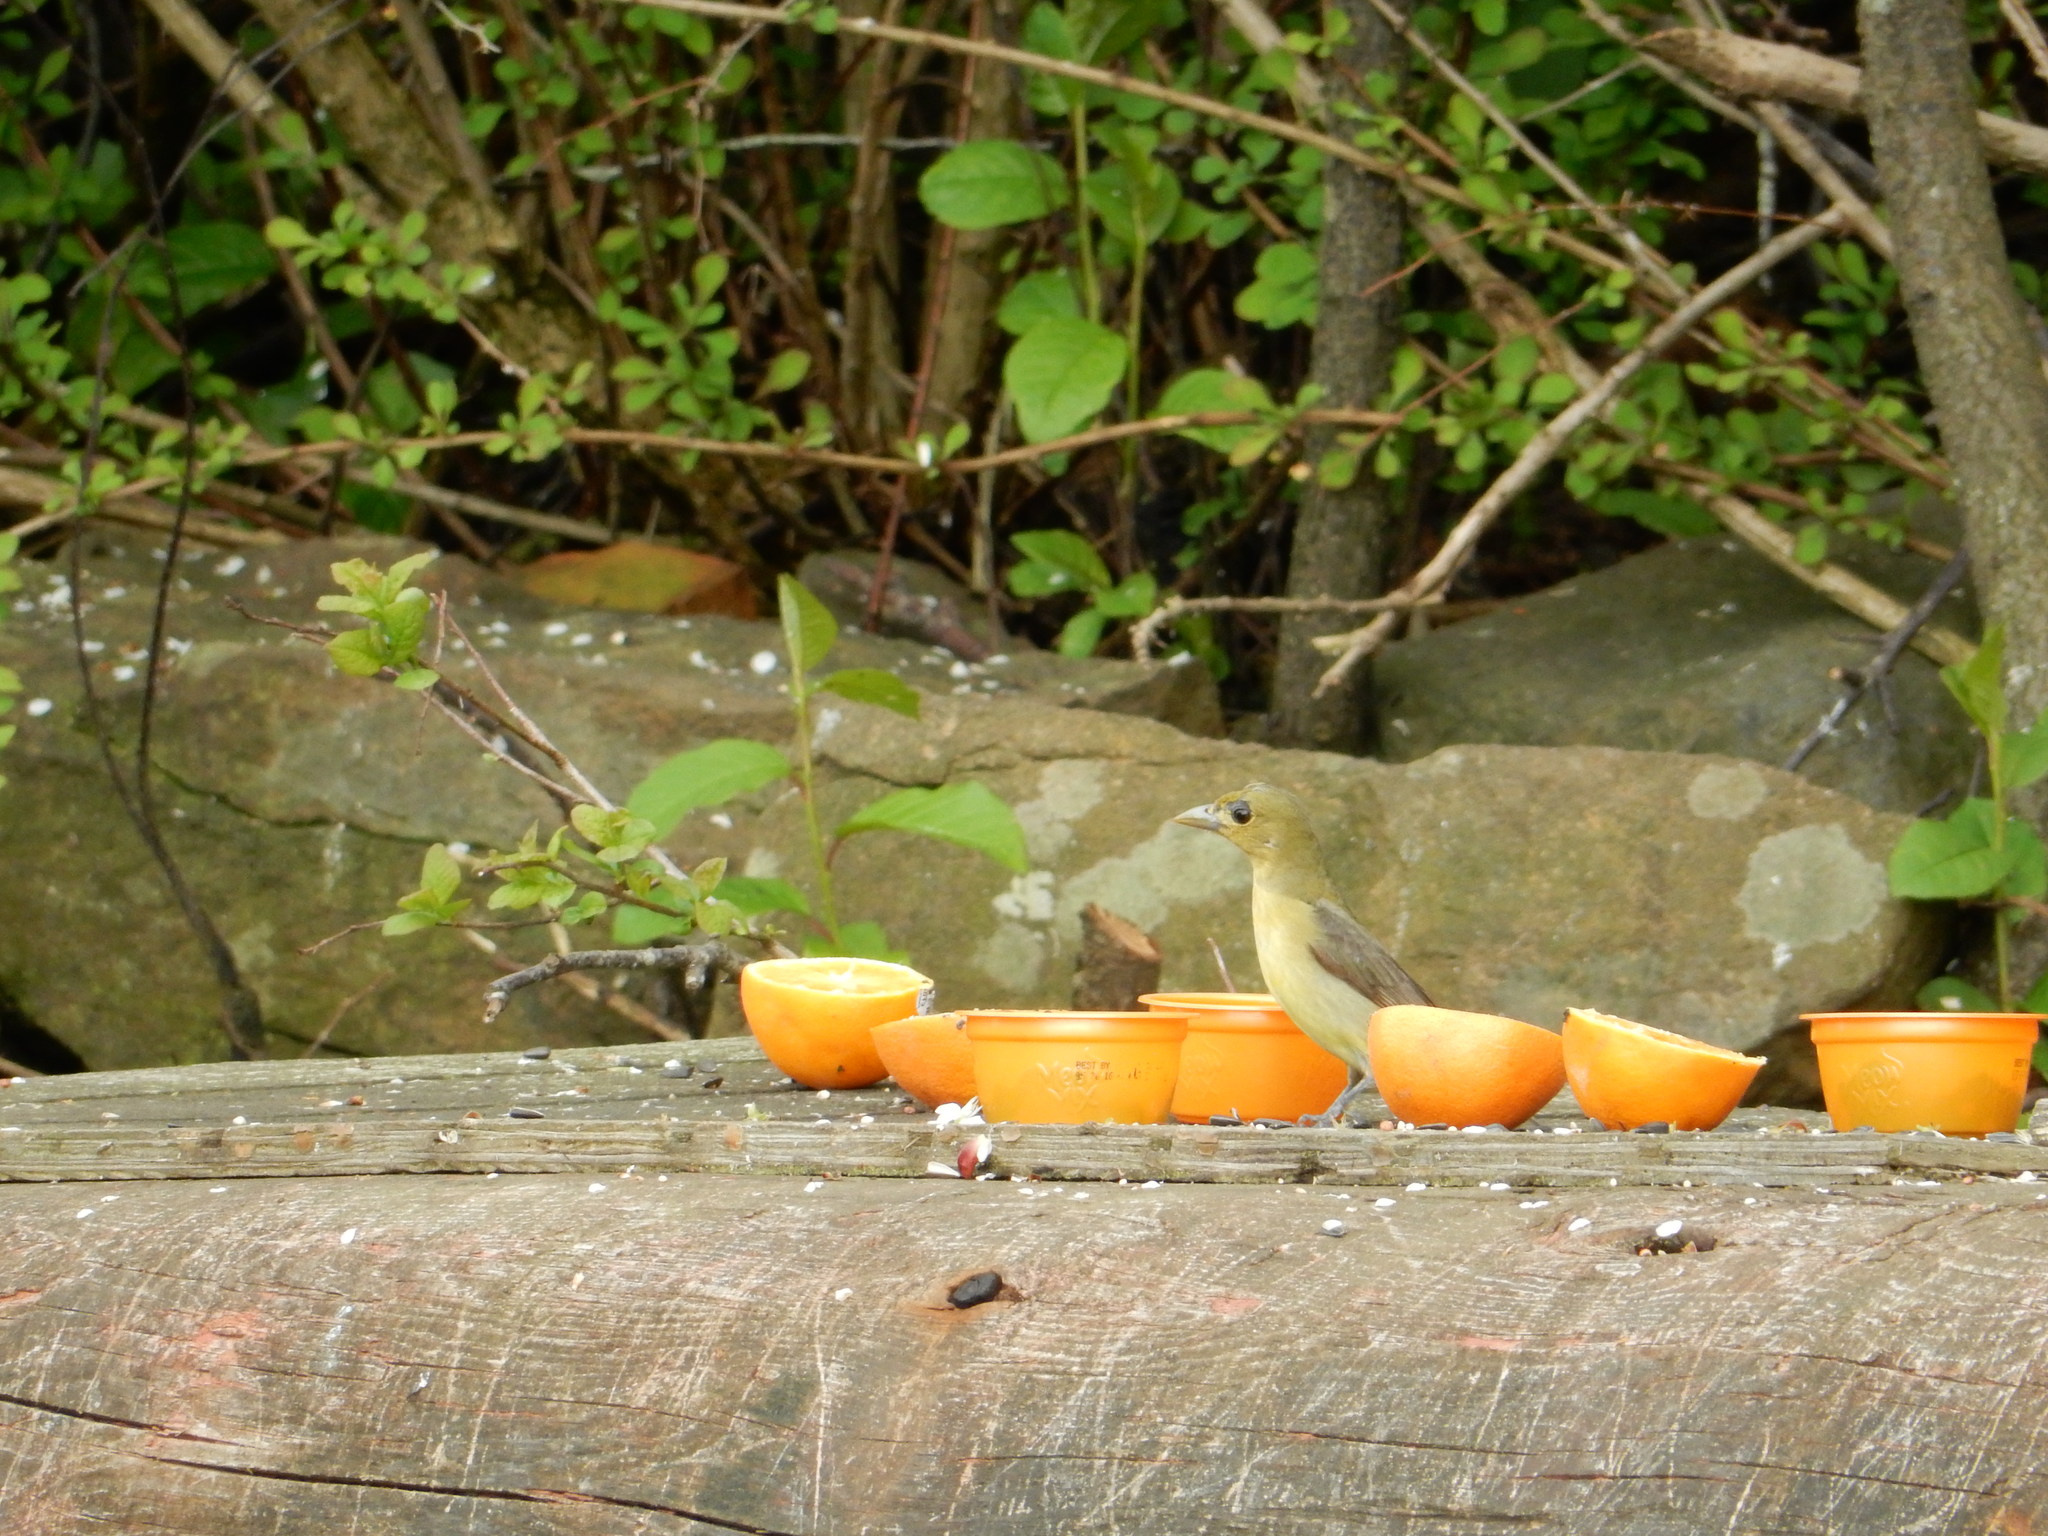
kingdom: Animalia
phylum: Chordata
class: Aves
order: Passeriformes
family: Cardinalidae
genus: Piranga
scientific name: Piranga olivacea
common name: Scarlet tanager
